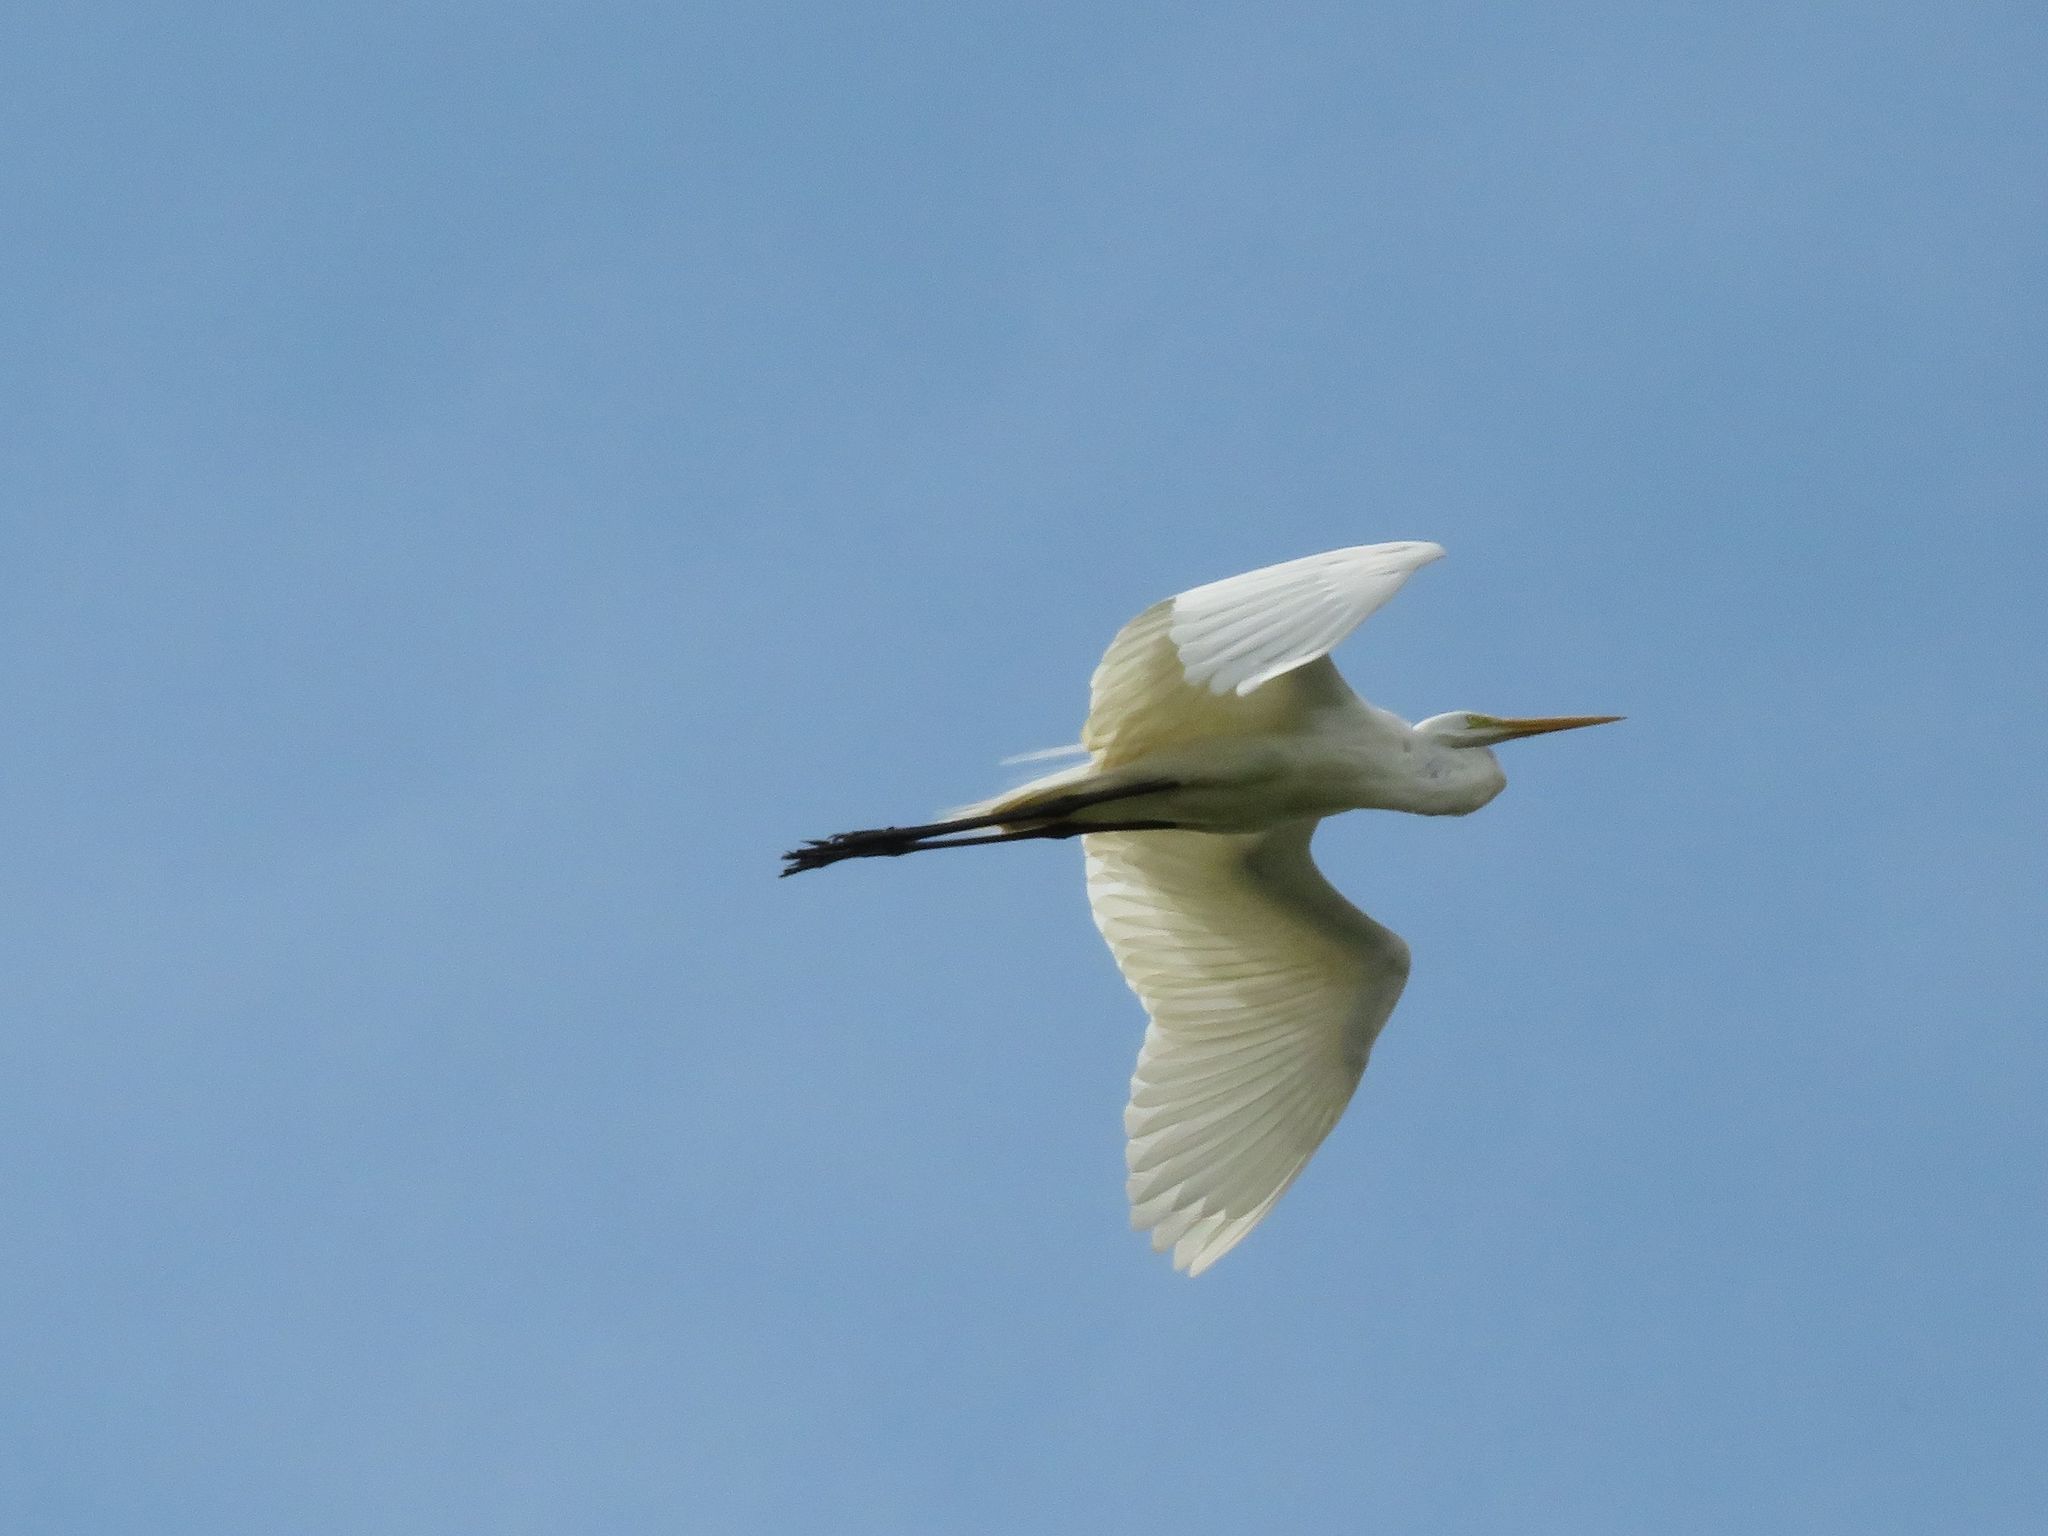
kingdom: Animalia
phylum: Chordata
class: Aves
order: Pelecaniformes
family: Ardeidae
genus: Ardea
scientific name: Ardea alba
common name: Great egret
